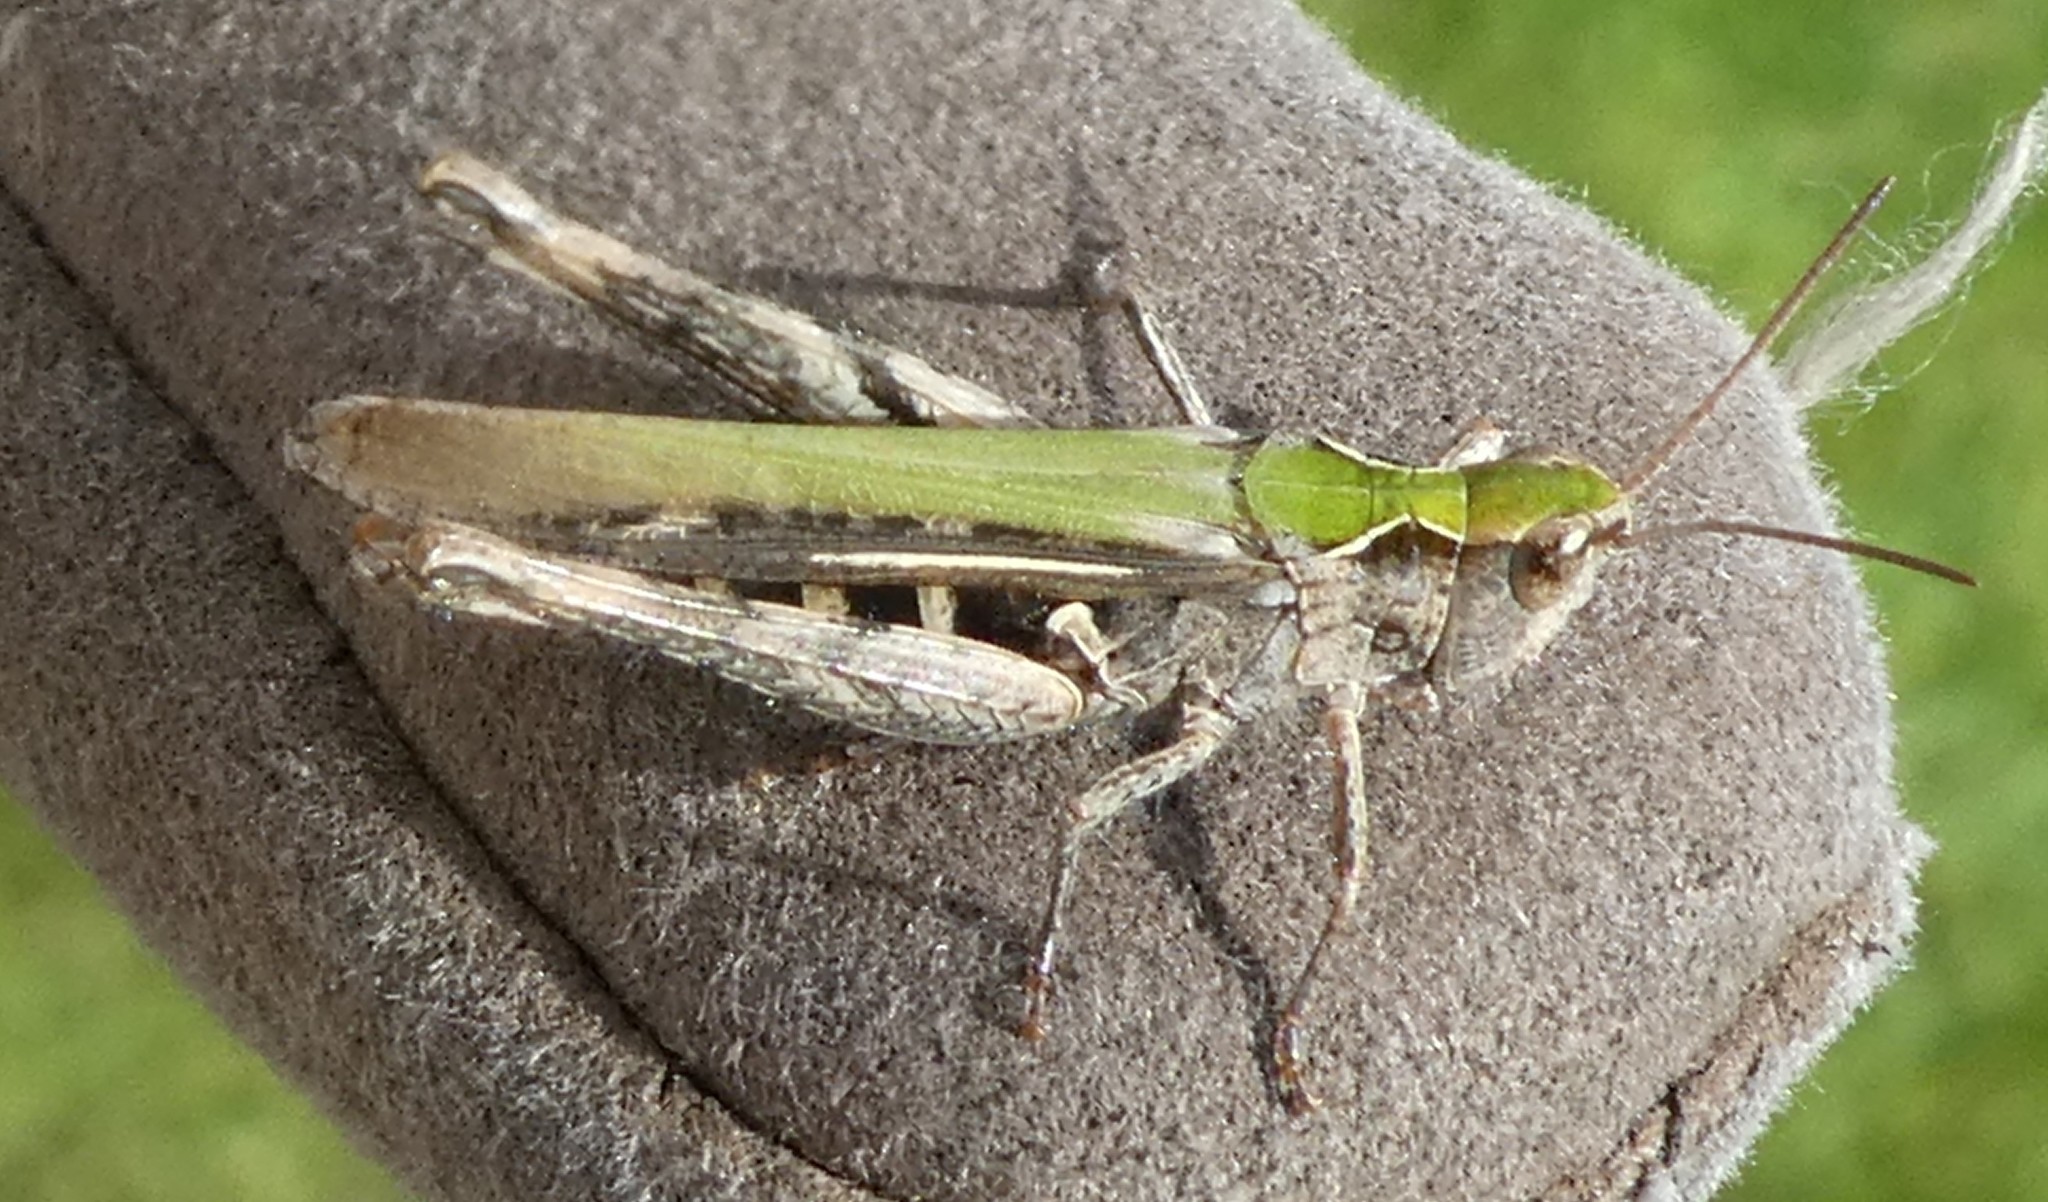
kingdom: Animalia
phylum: Arthropoda
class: Insecta
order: Orthoptera
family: Acrididae
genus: Chorthippus
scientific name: Chorthippus brunneus
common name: Field grasshopper
